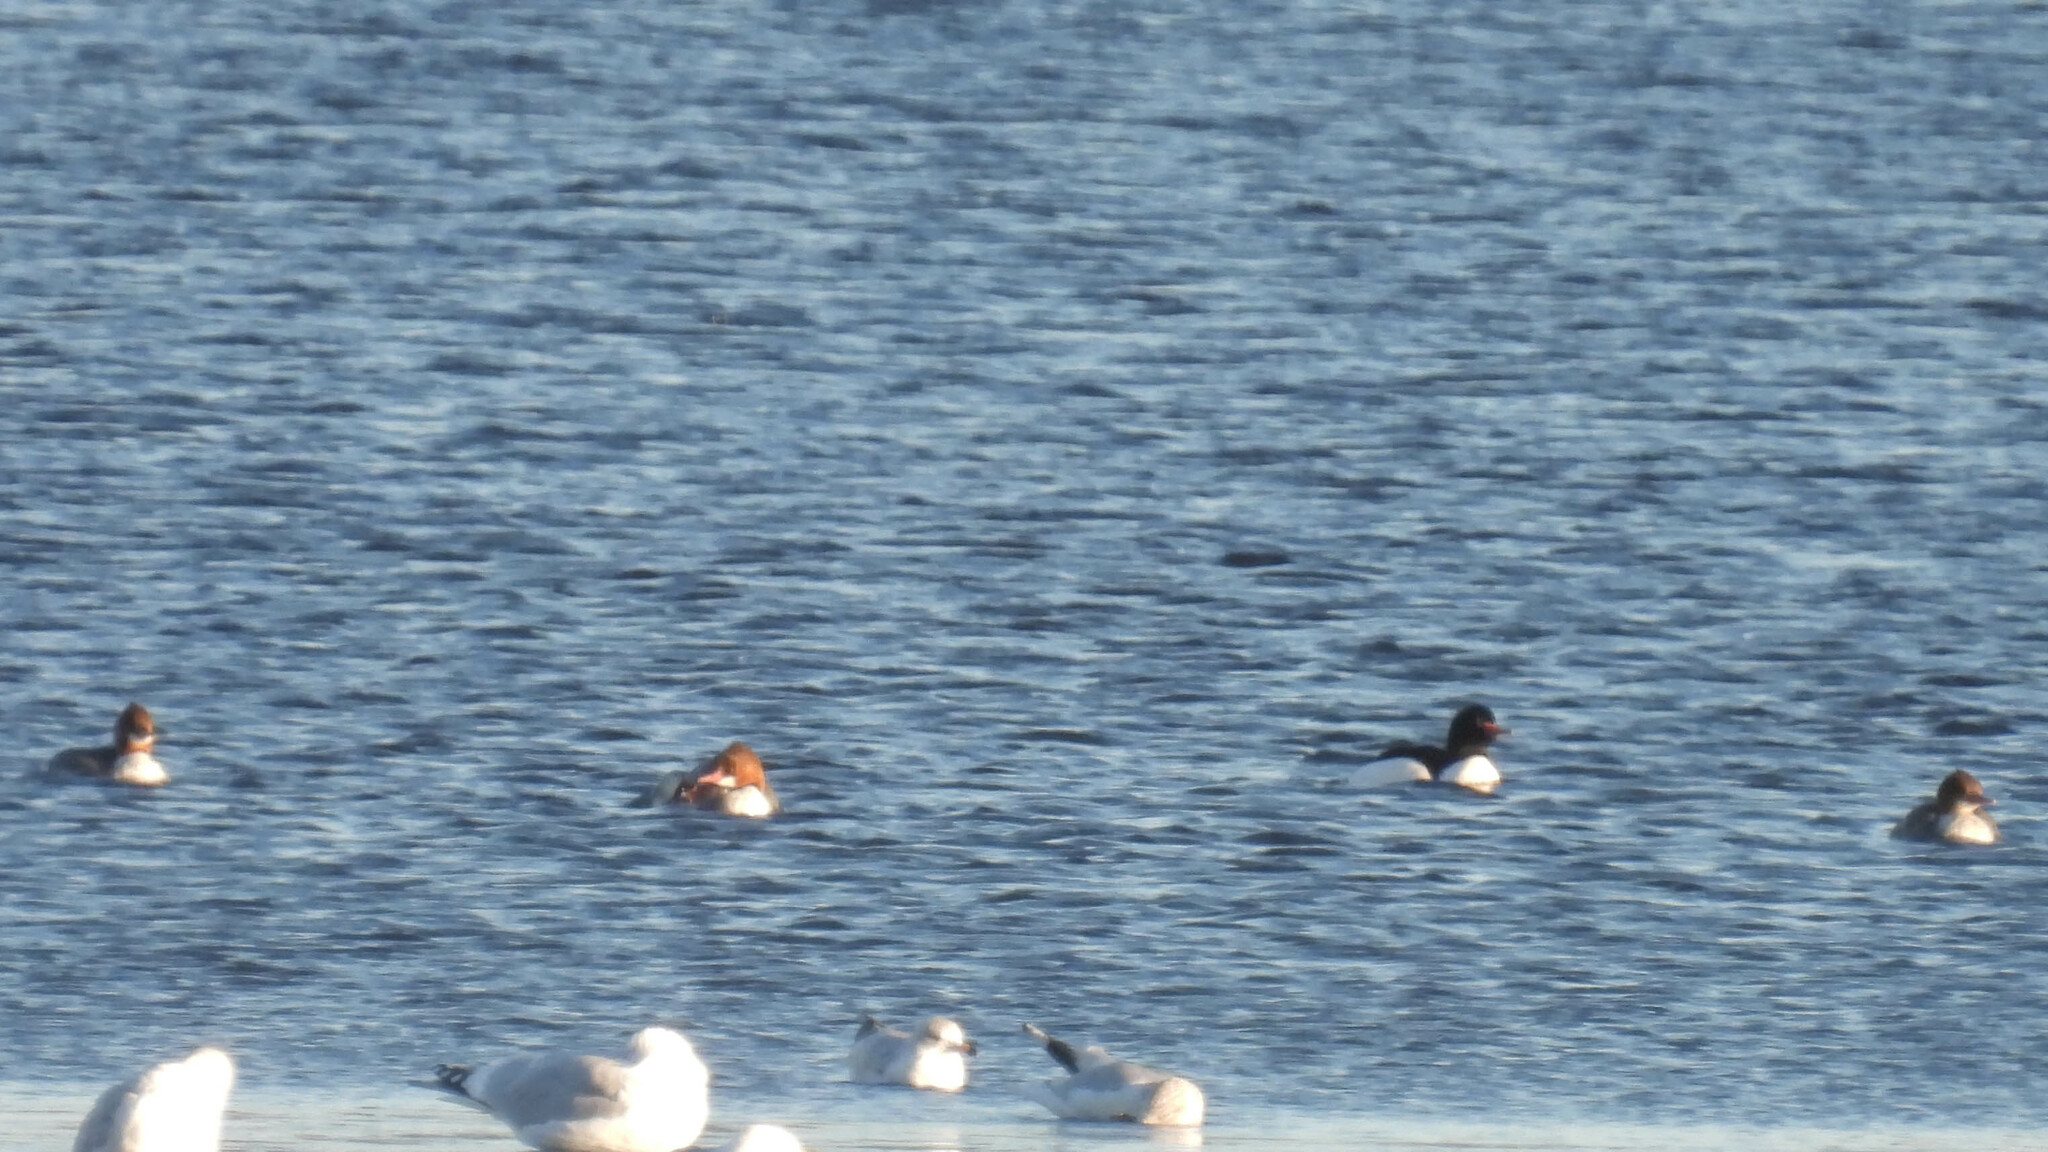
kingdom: Animalia
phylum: Chordata
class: Aves
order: Anseriformes
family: Anatidae
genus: Mergus
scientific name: Mergus merganser
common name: Common merganser
